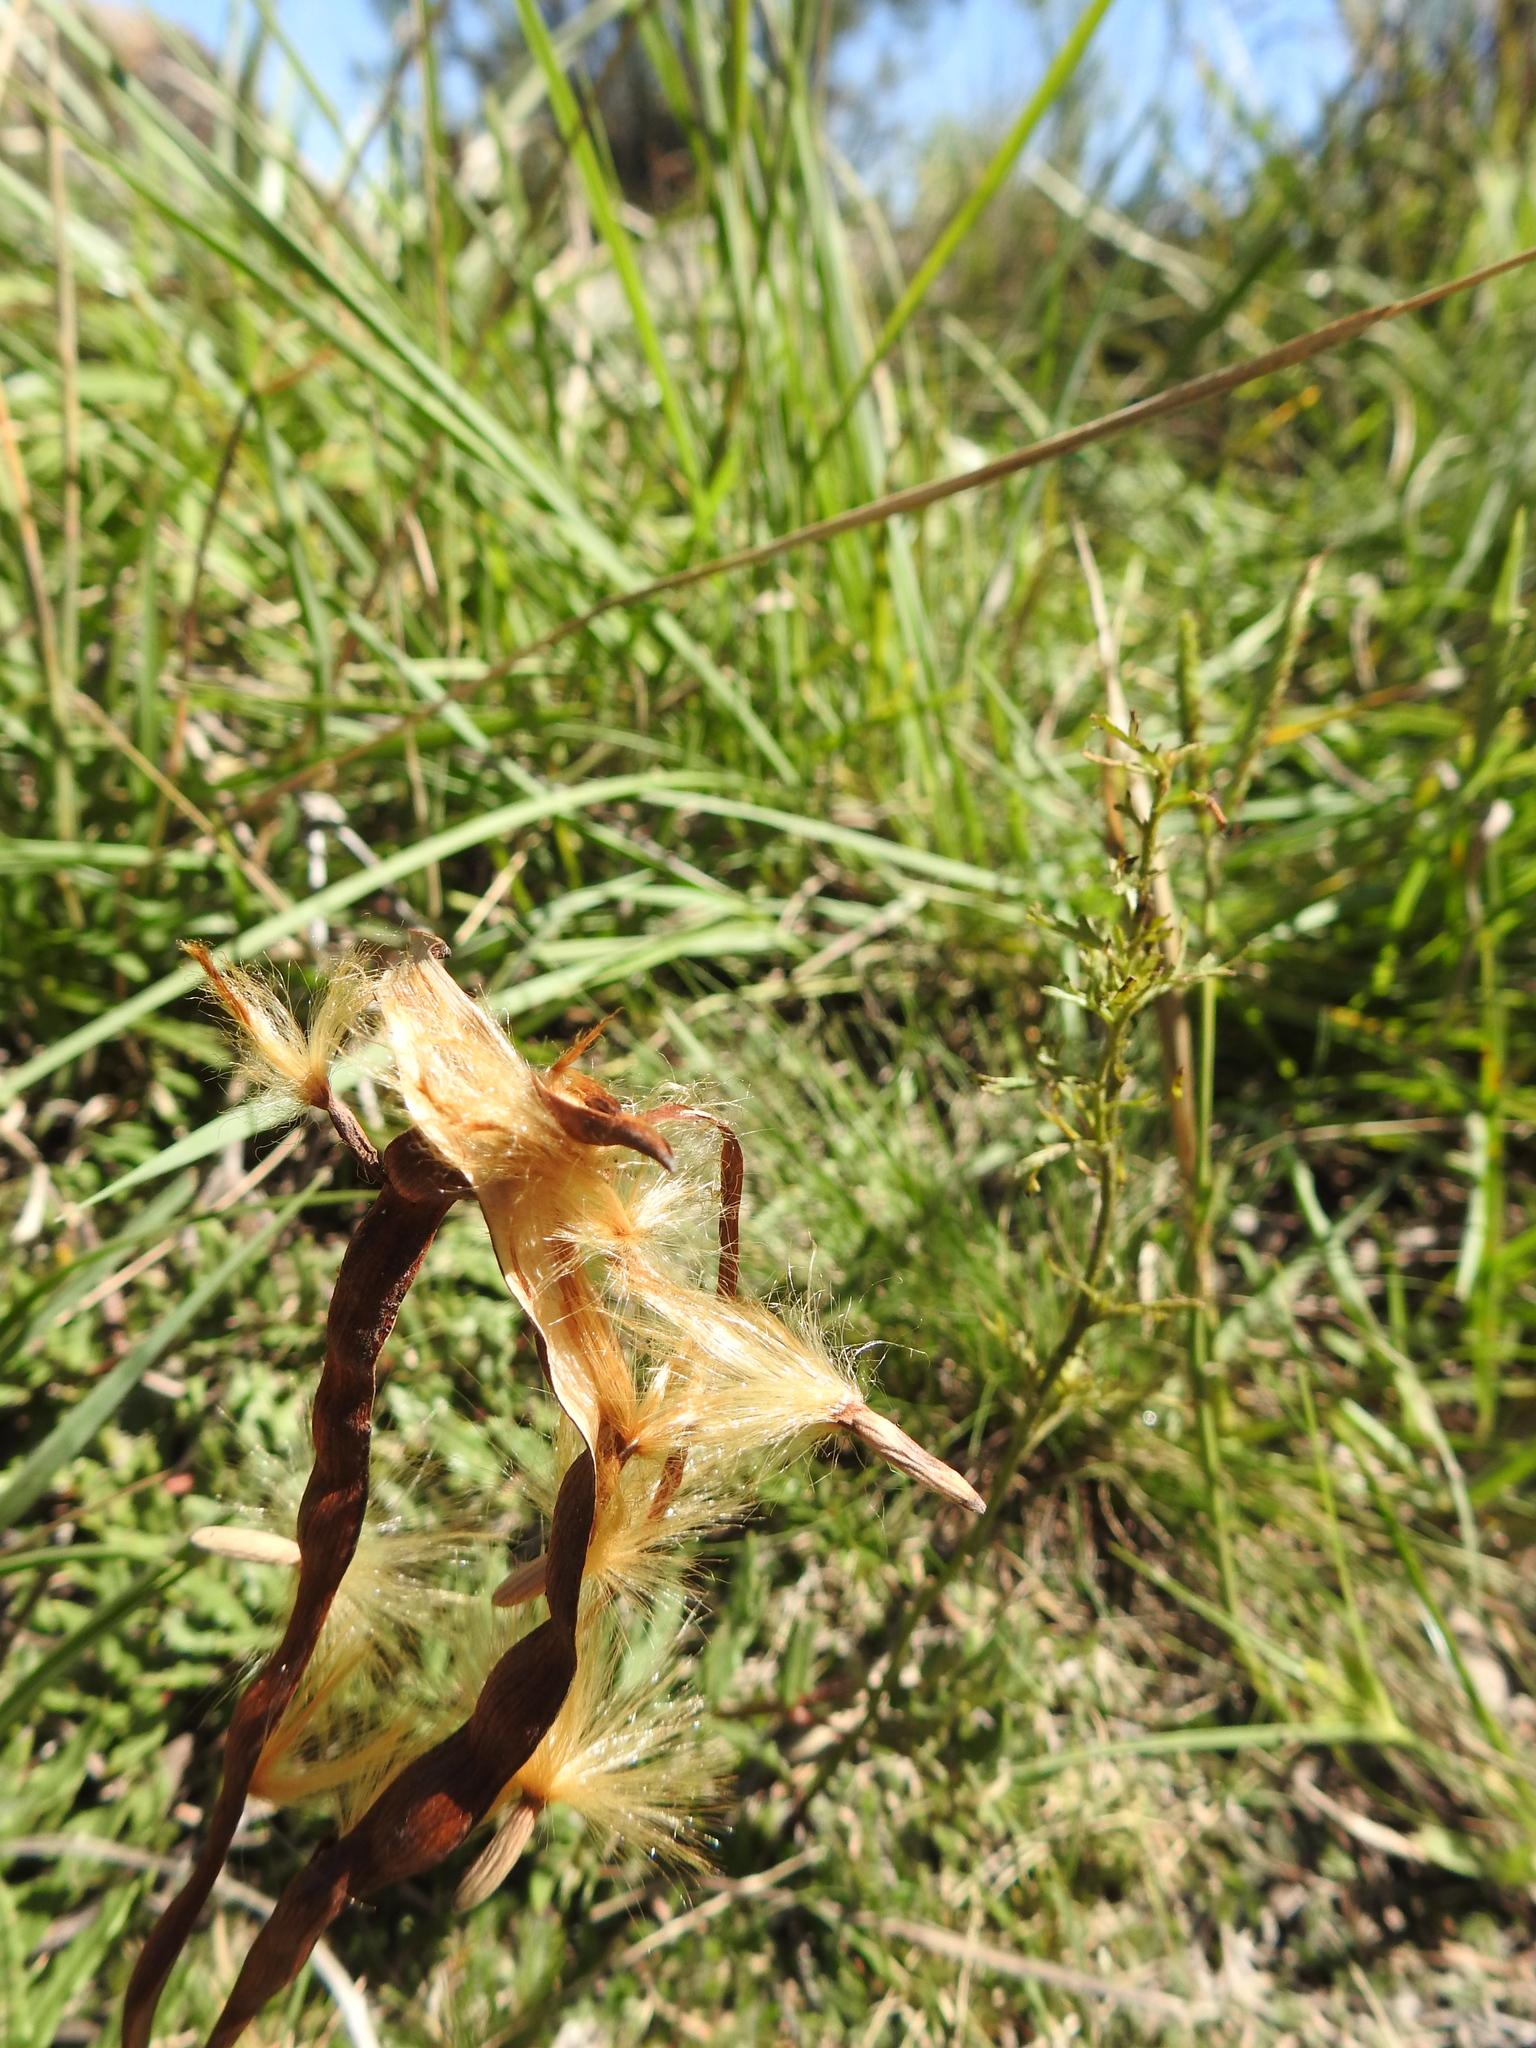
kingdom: Plantae
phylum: Tracheophyta
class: Magnoliopsida
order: Gentianales
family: Apocynaceae
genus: Mandevilla
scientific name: Mandevilla petraea
